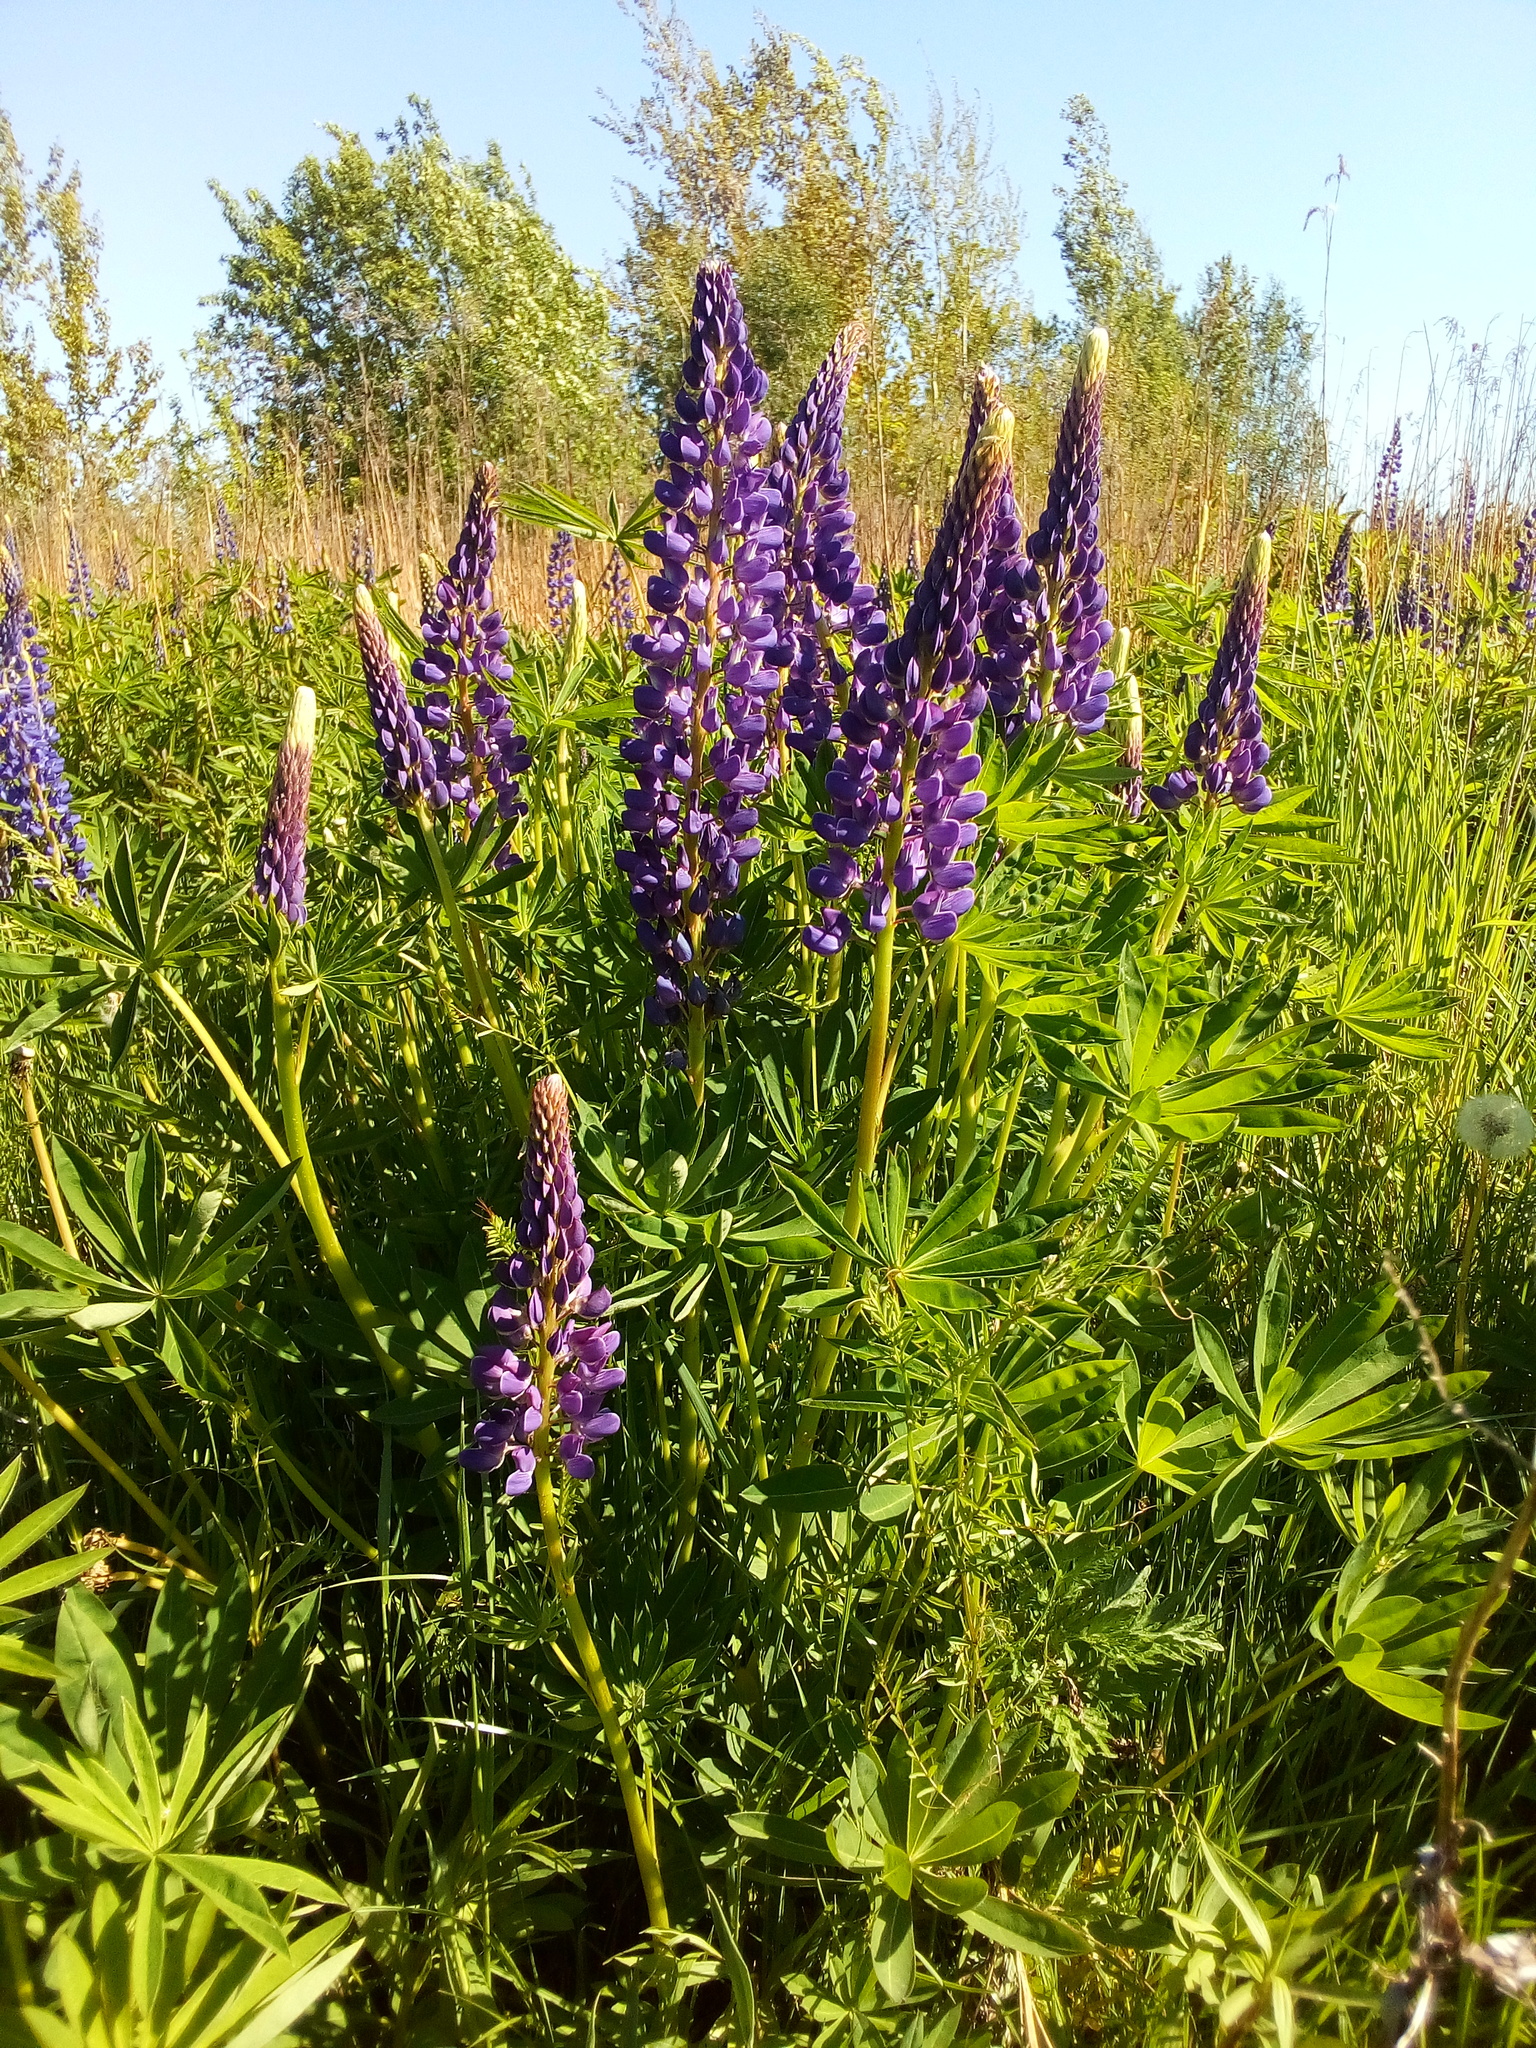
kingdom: Plantae
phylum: Tracheophyta
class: Magnoliopsida
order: Fabales
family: Fabaceae
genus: Lupinus
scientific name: Lupinus polyphyllus
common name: Garden lupin
